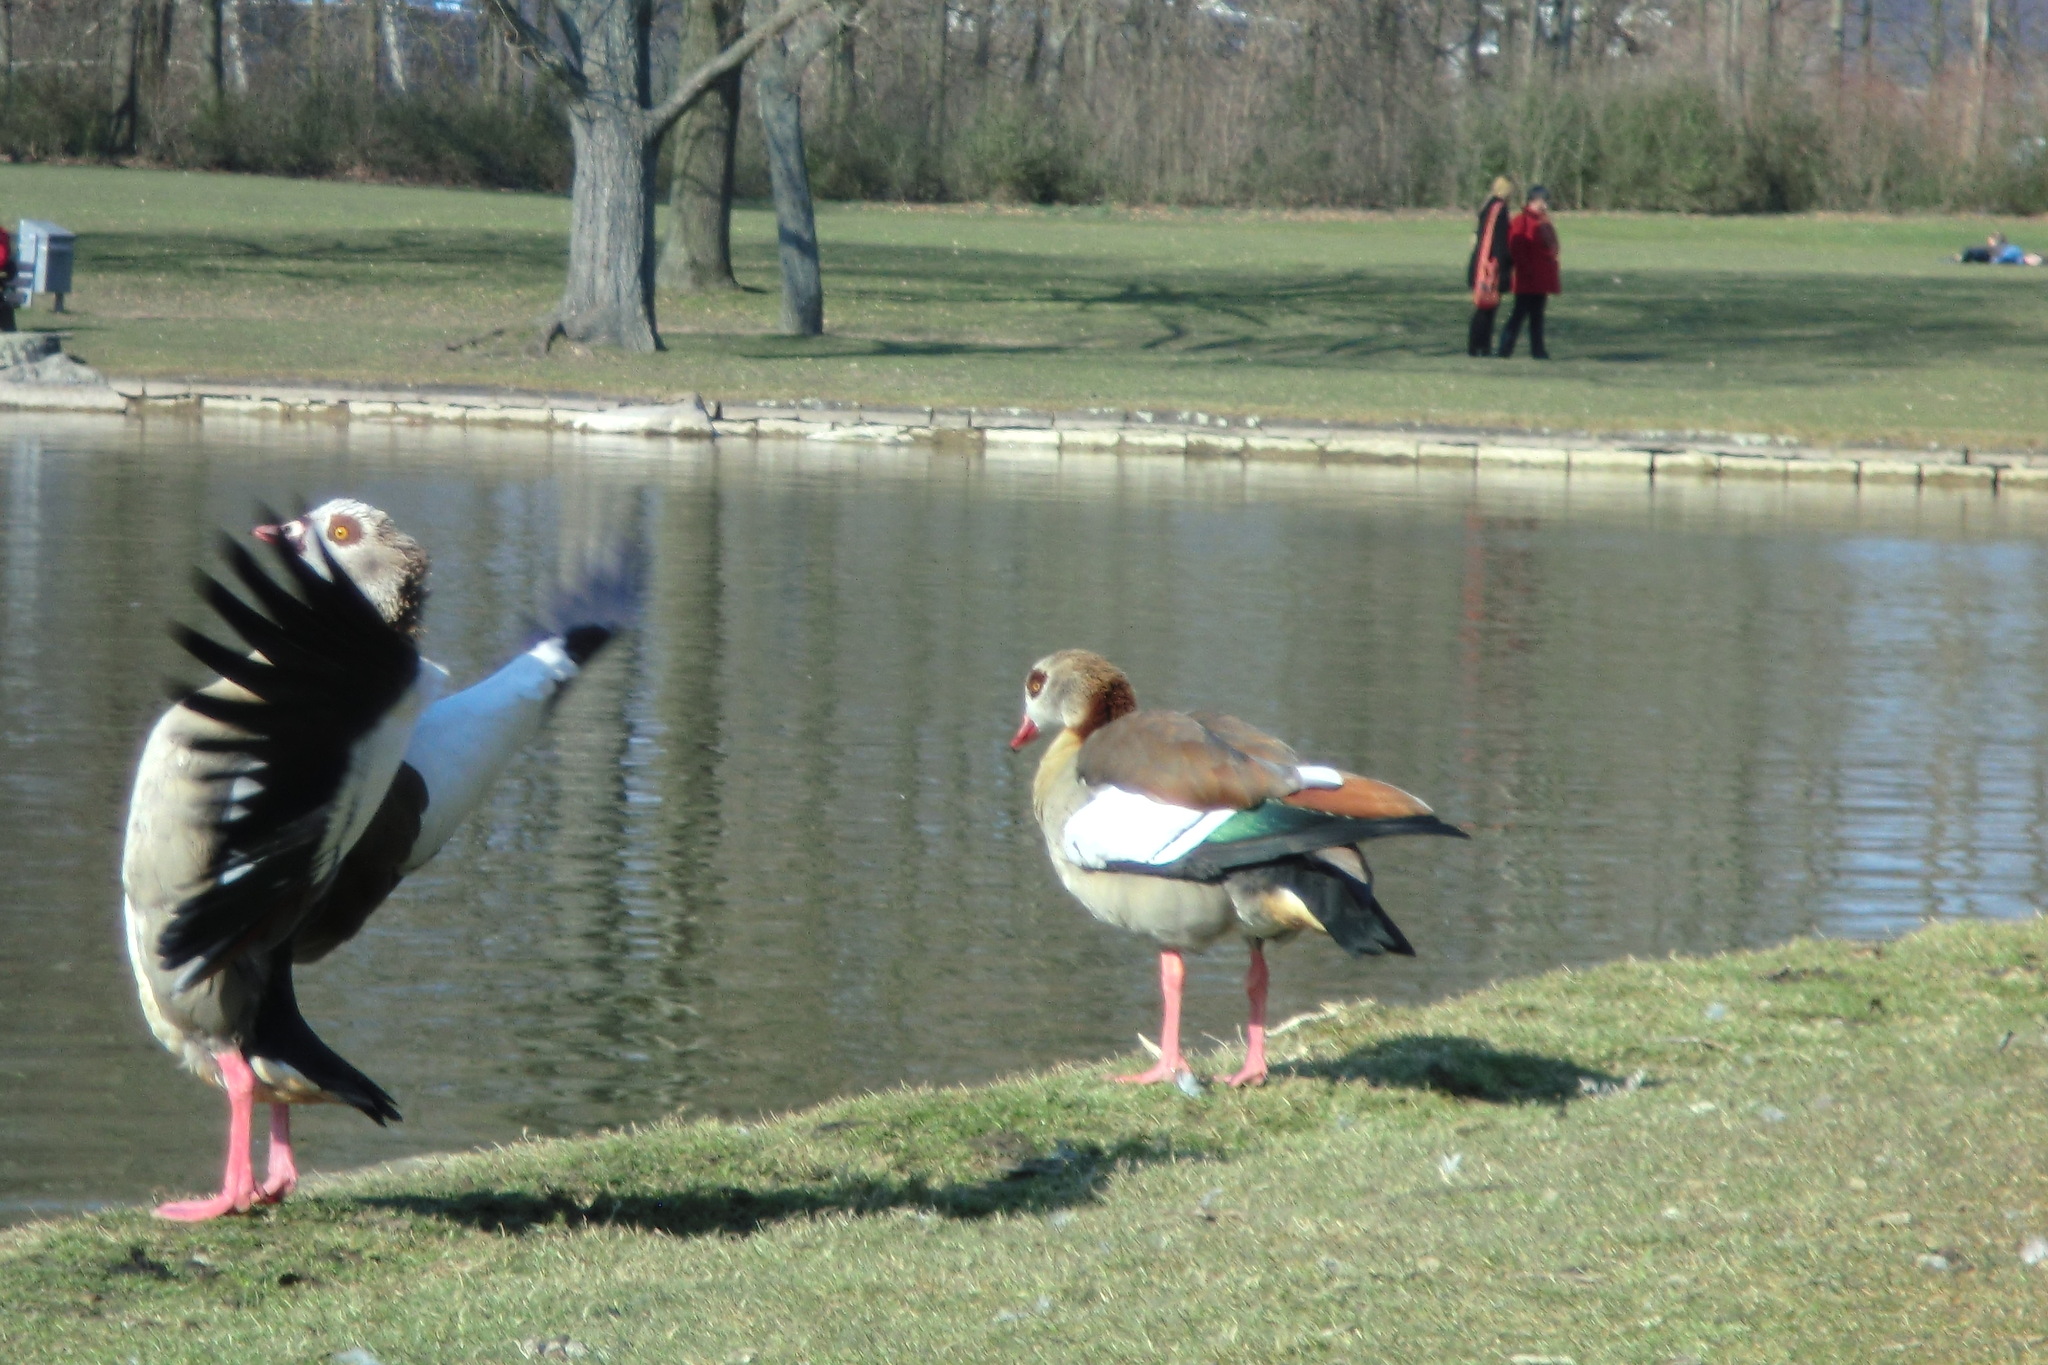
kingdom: Animalia
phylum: Chordata
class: Aves
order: Anseriformes
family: Anatidae
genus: Alopochen
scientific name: Alopochen aegyptiaca
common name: Egyptian goose
